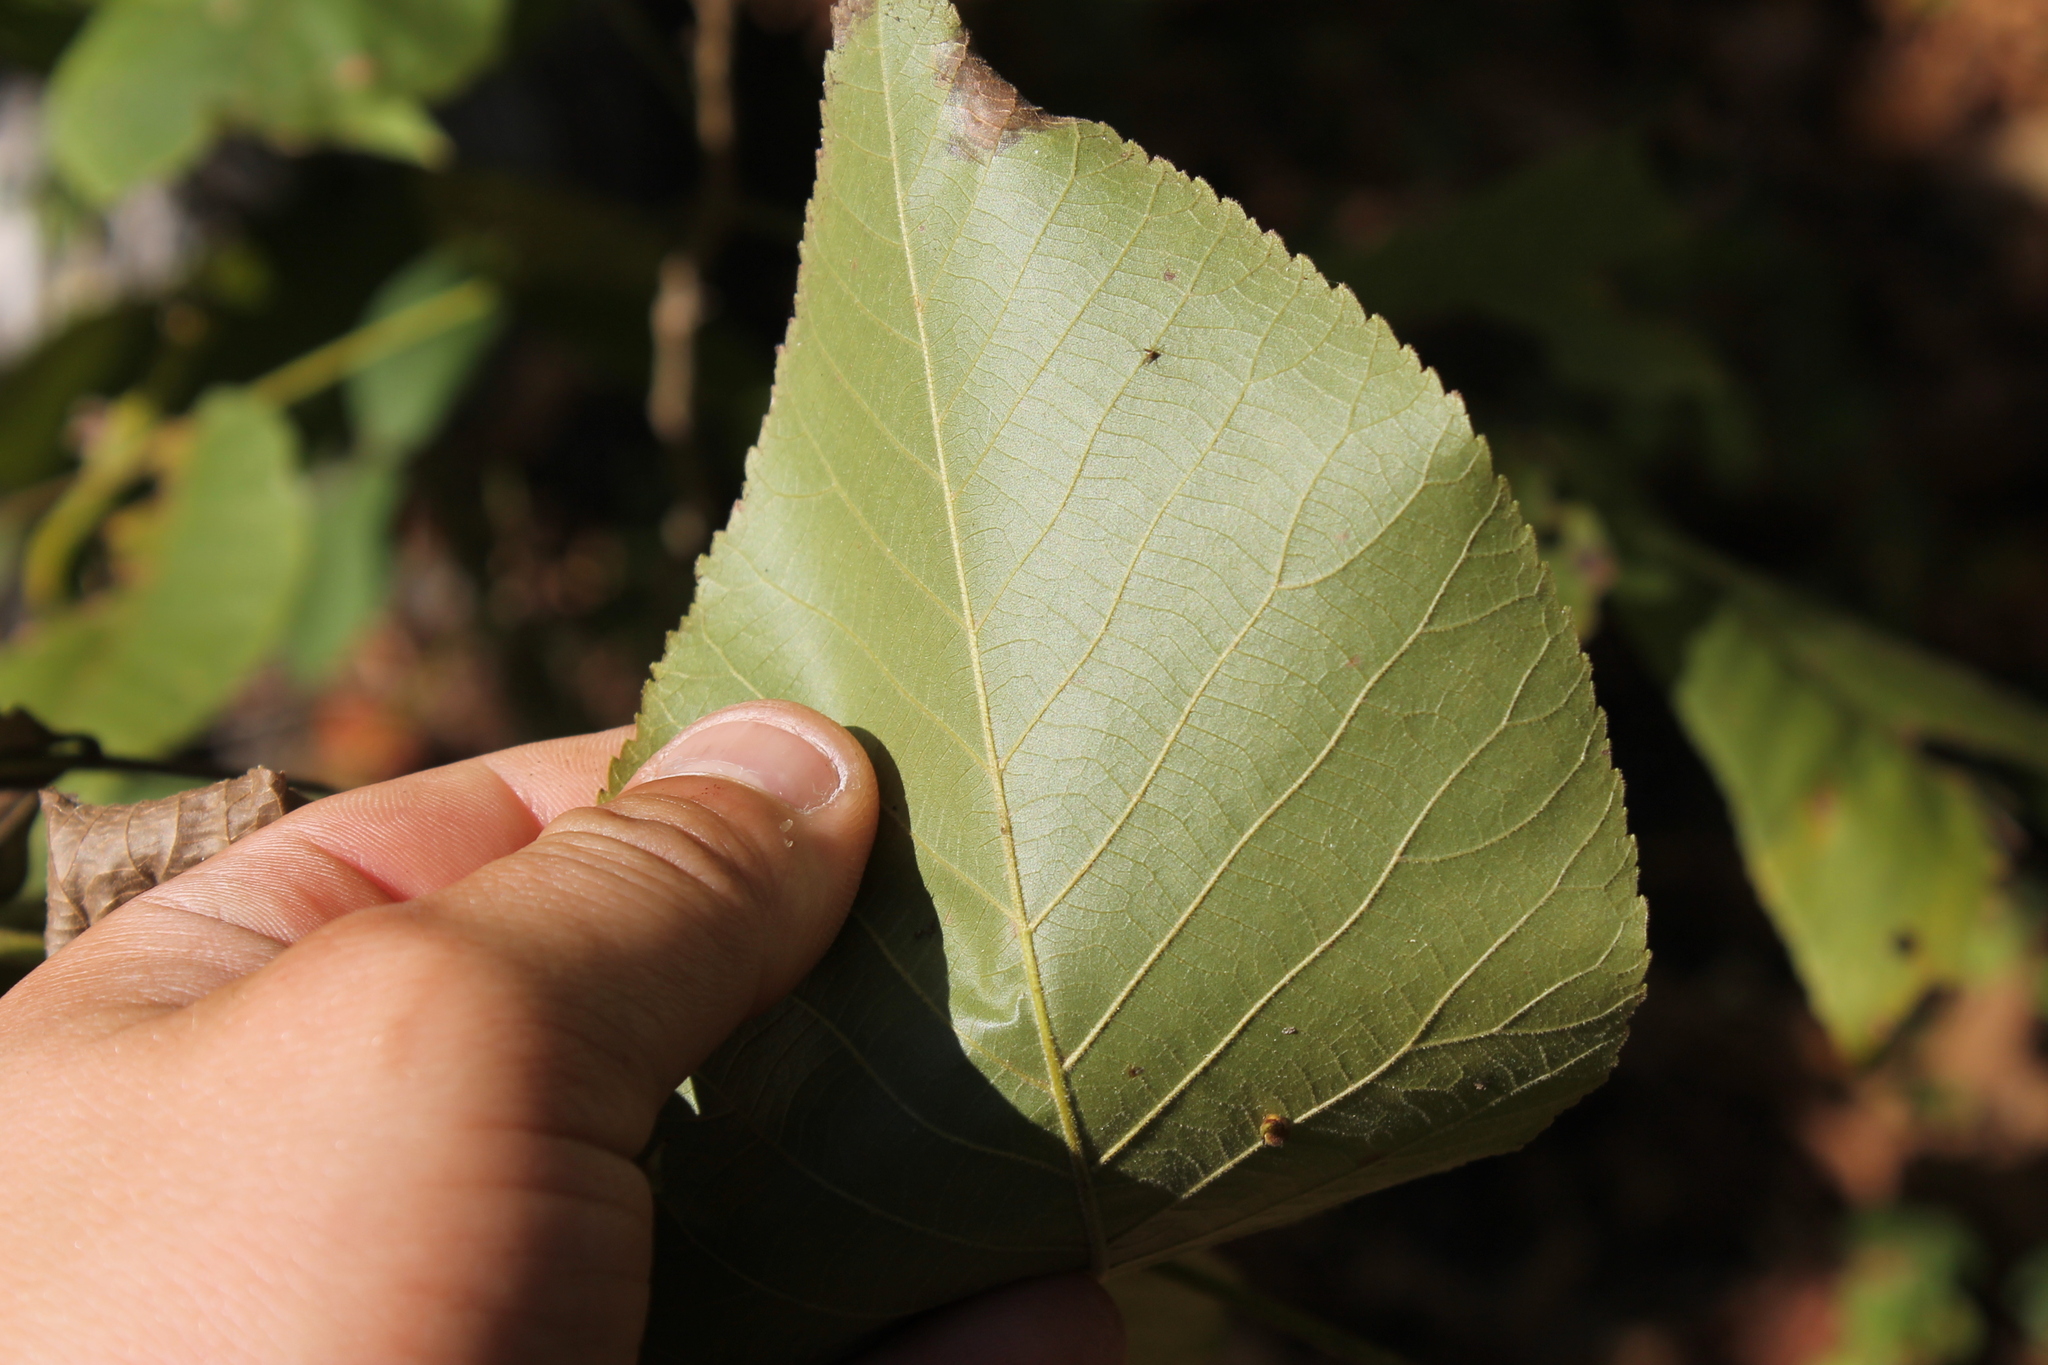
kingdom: Plantae
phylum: Tracheophyta
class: Magnoliopsida
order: Fagales
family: Juglandaceae
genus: Carya
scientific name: Carya carolinae-septentrionalis
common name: Carolina hickory
